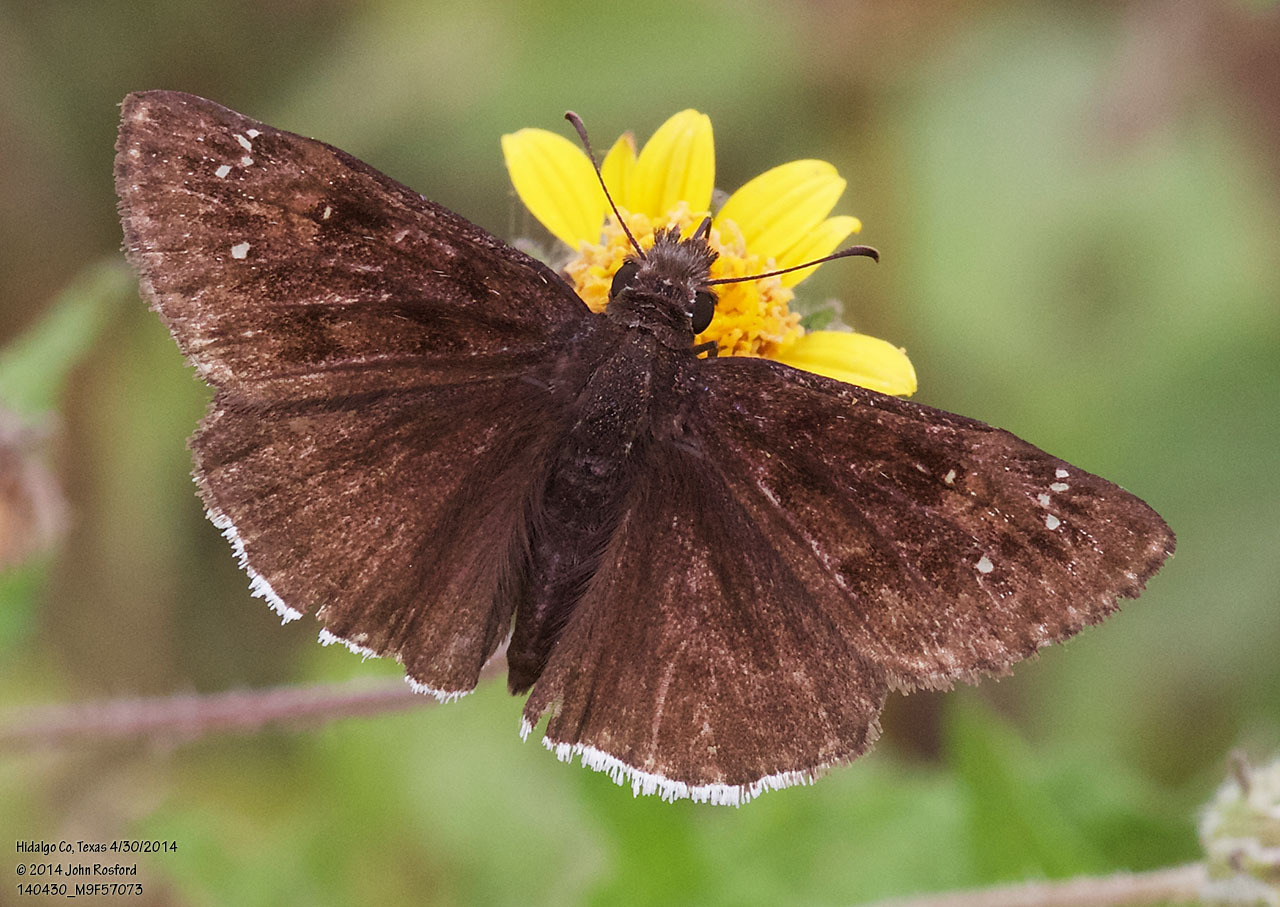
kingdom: Animalia
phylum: Arthropoda
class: Insecta
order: Lepidoptera
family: Hesperiidae
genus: Erynnis
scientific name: Erynnis tristis
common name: Mournful duskywing
